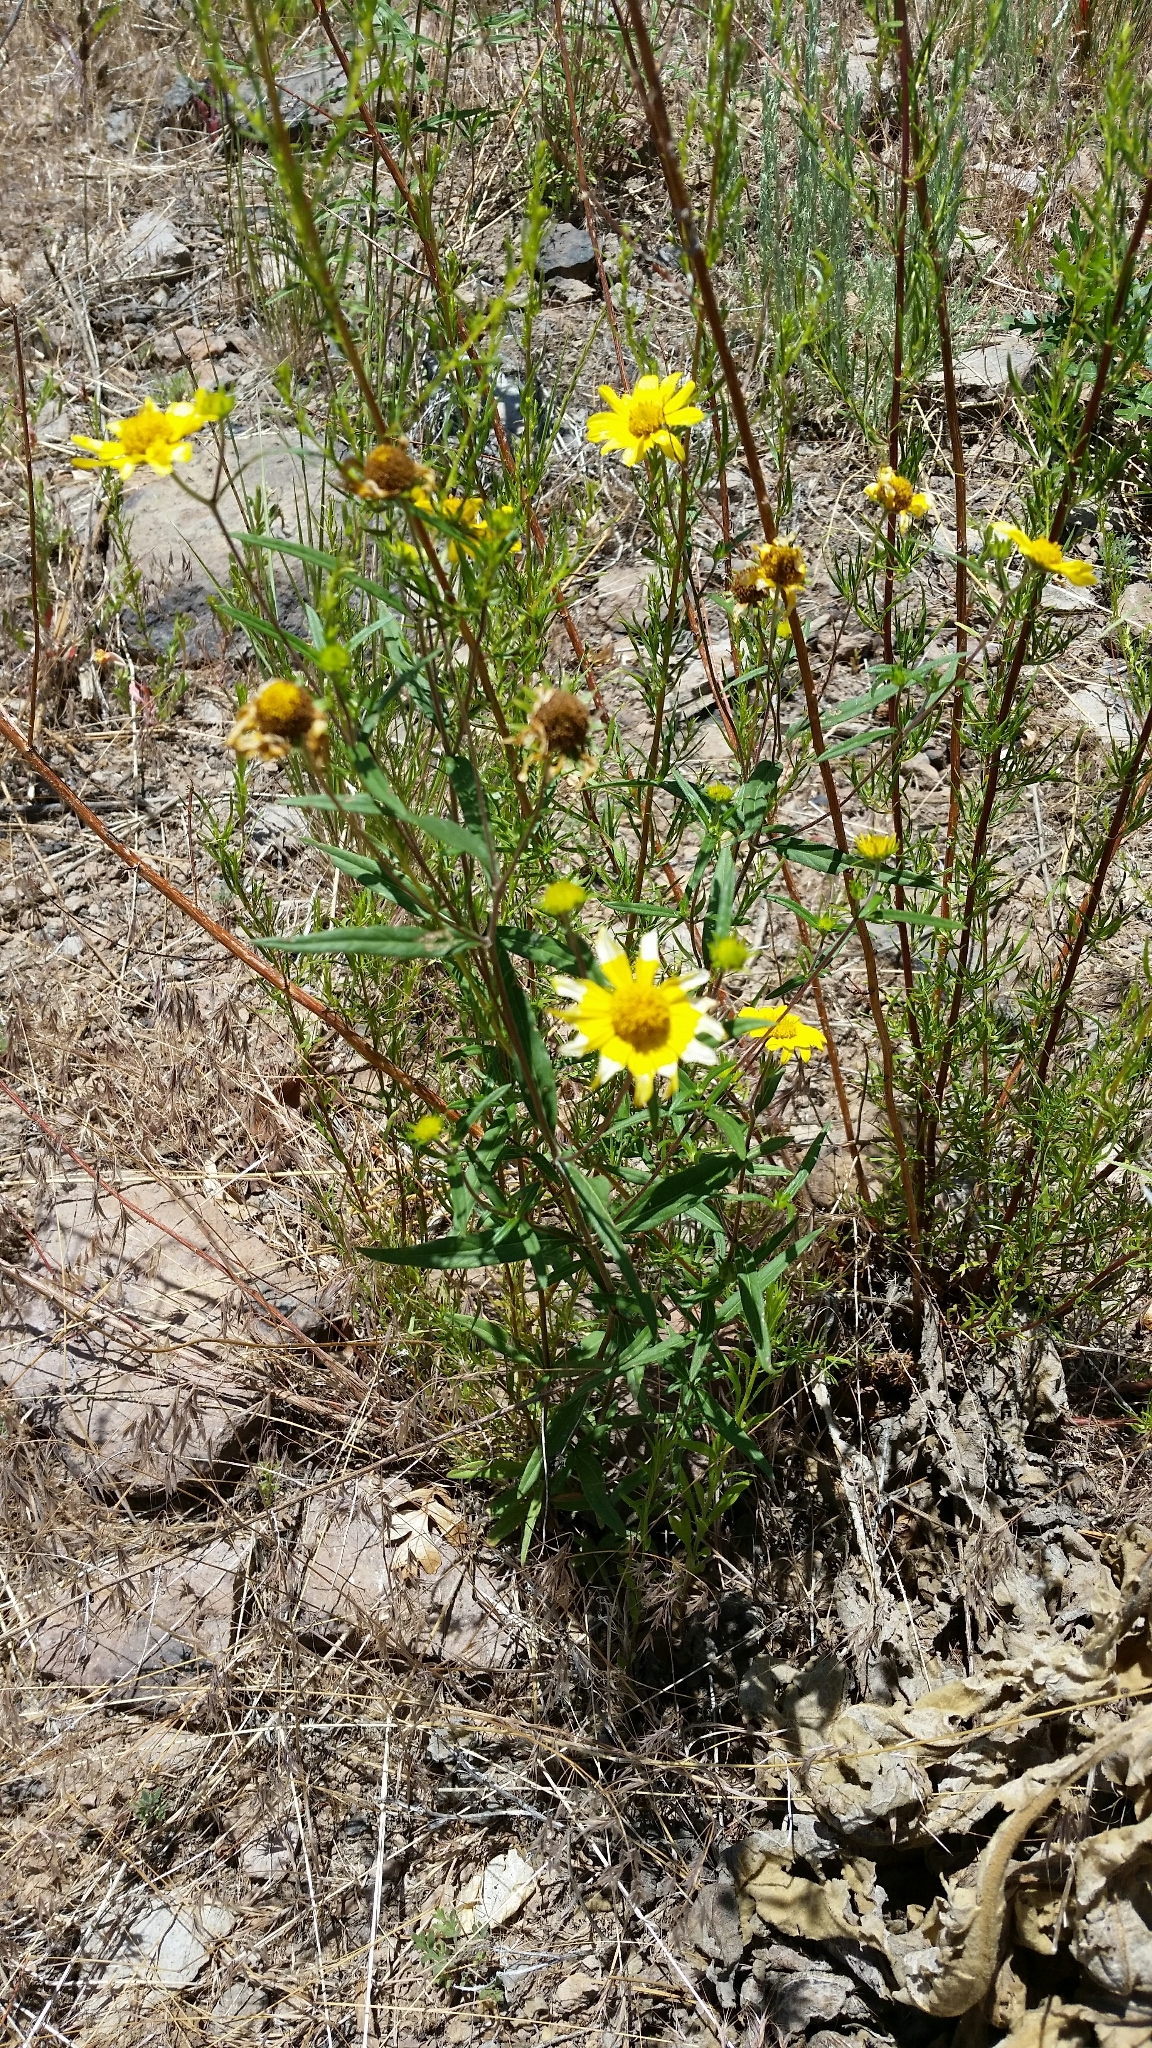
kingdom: Plantae
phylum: Tracheophyta
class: Magnoliopsida
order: Asterales
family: Asteraceae
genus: Heliomeris
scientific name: Heliomeris multiflora
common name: Showy goldeneye
